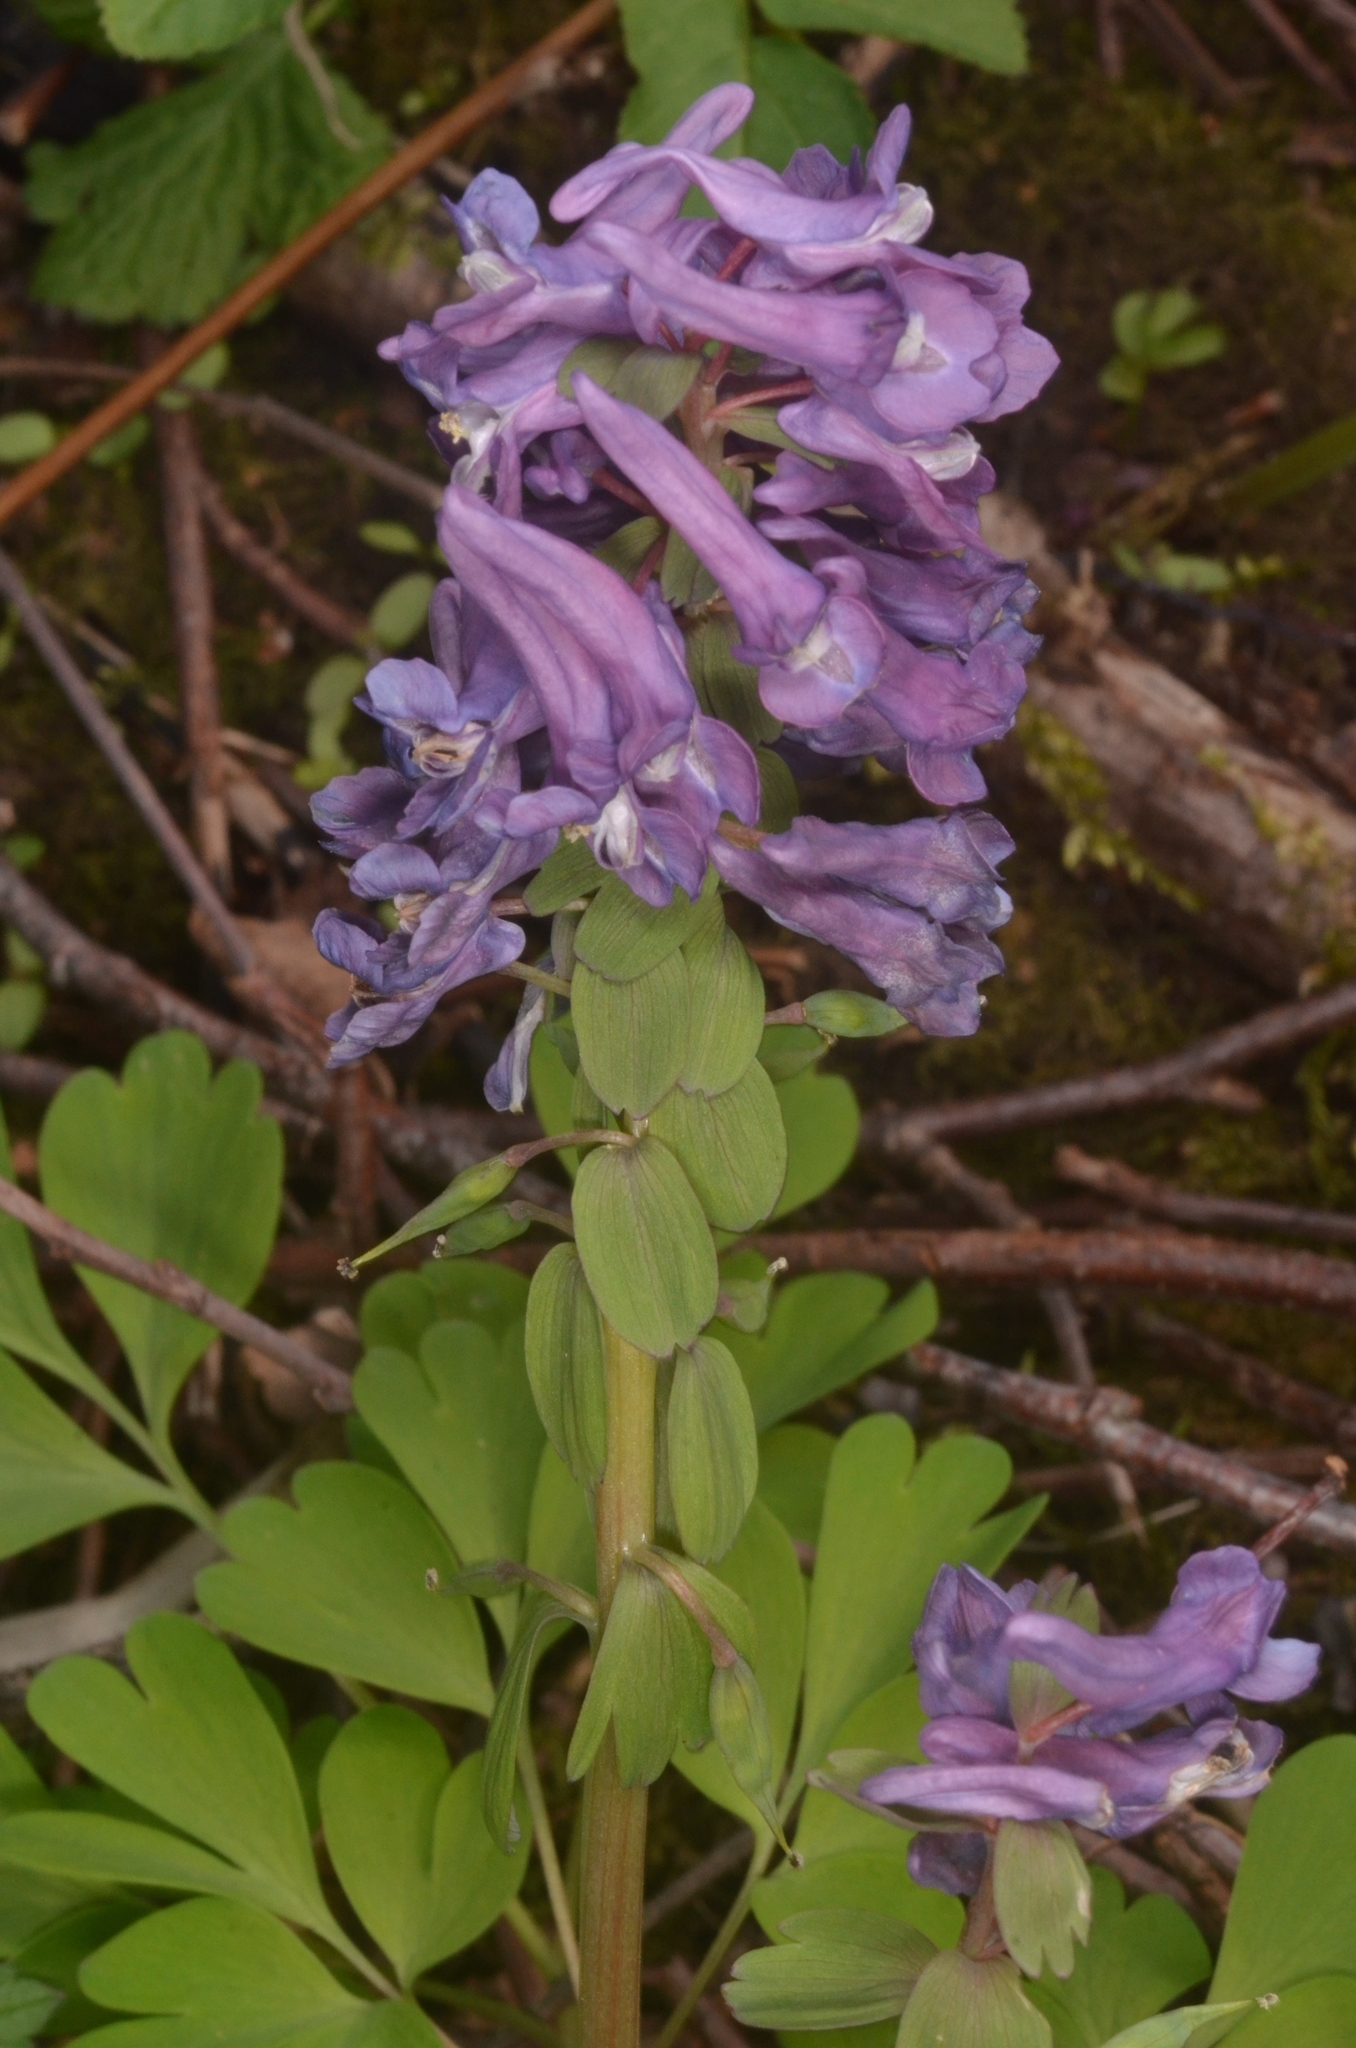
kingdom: Plantae
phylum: Tracheophyta
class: Magnoliopsida
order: Ranunculales
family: Papaveraceae
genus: Corydalis
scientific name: Corydalis solida
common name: Bird-in-a-bush
